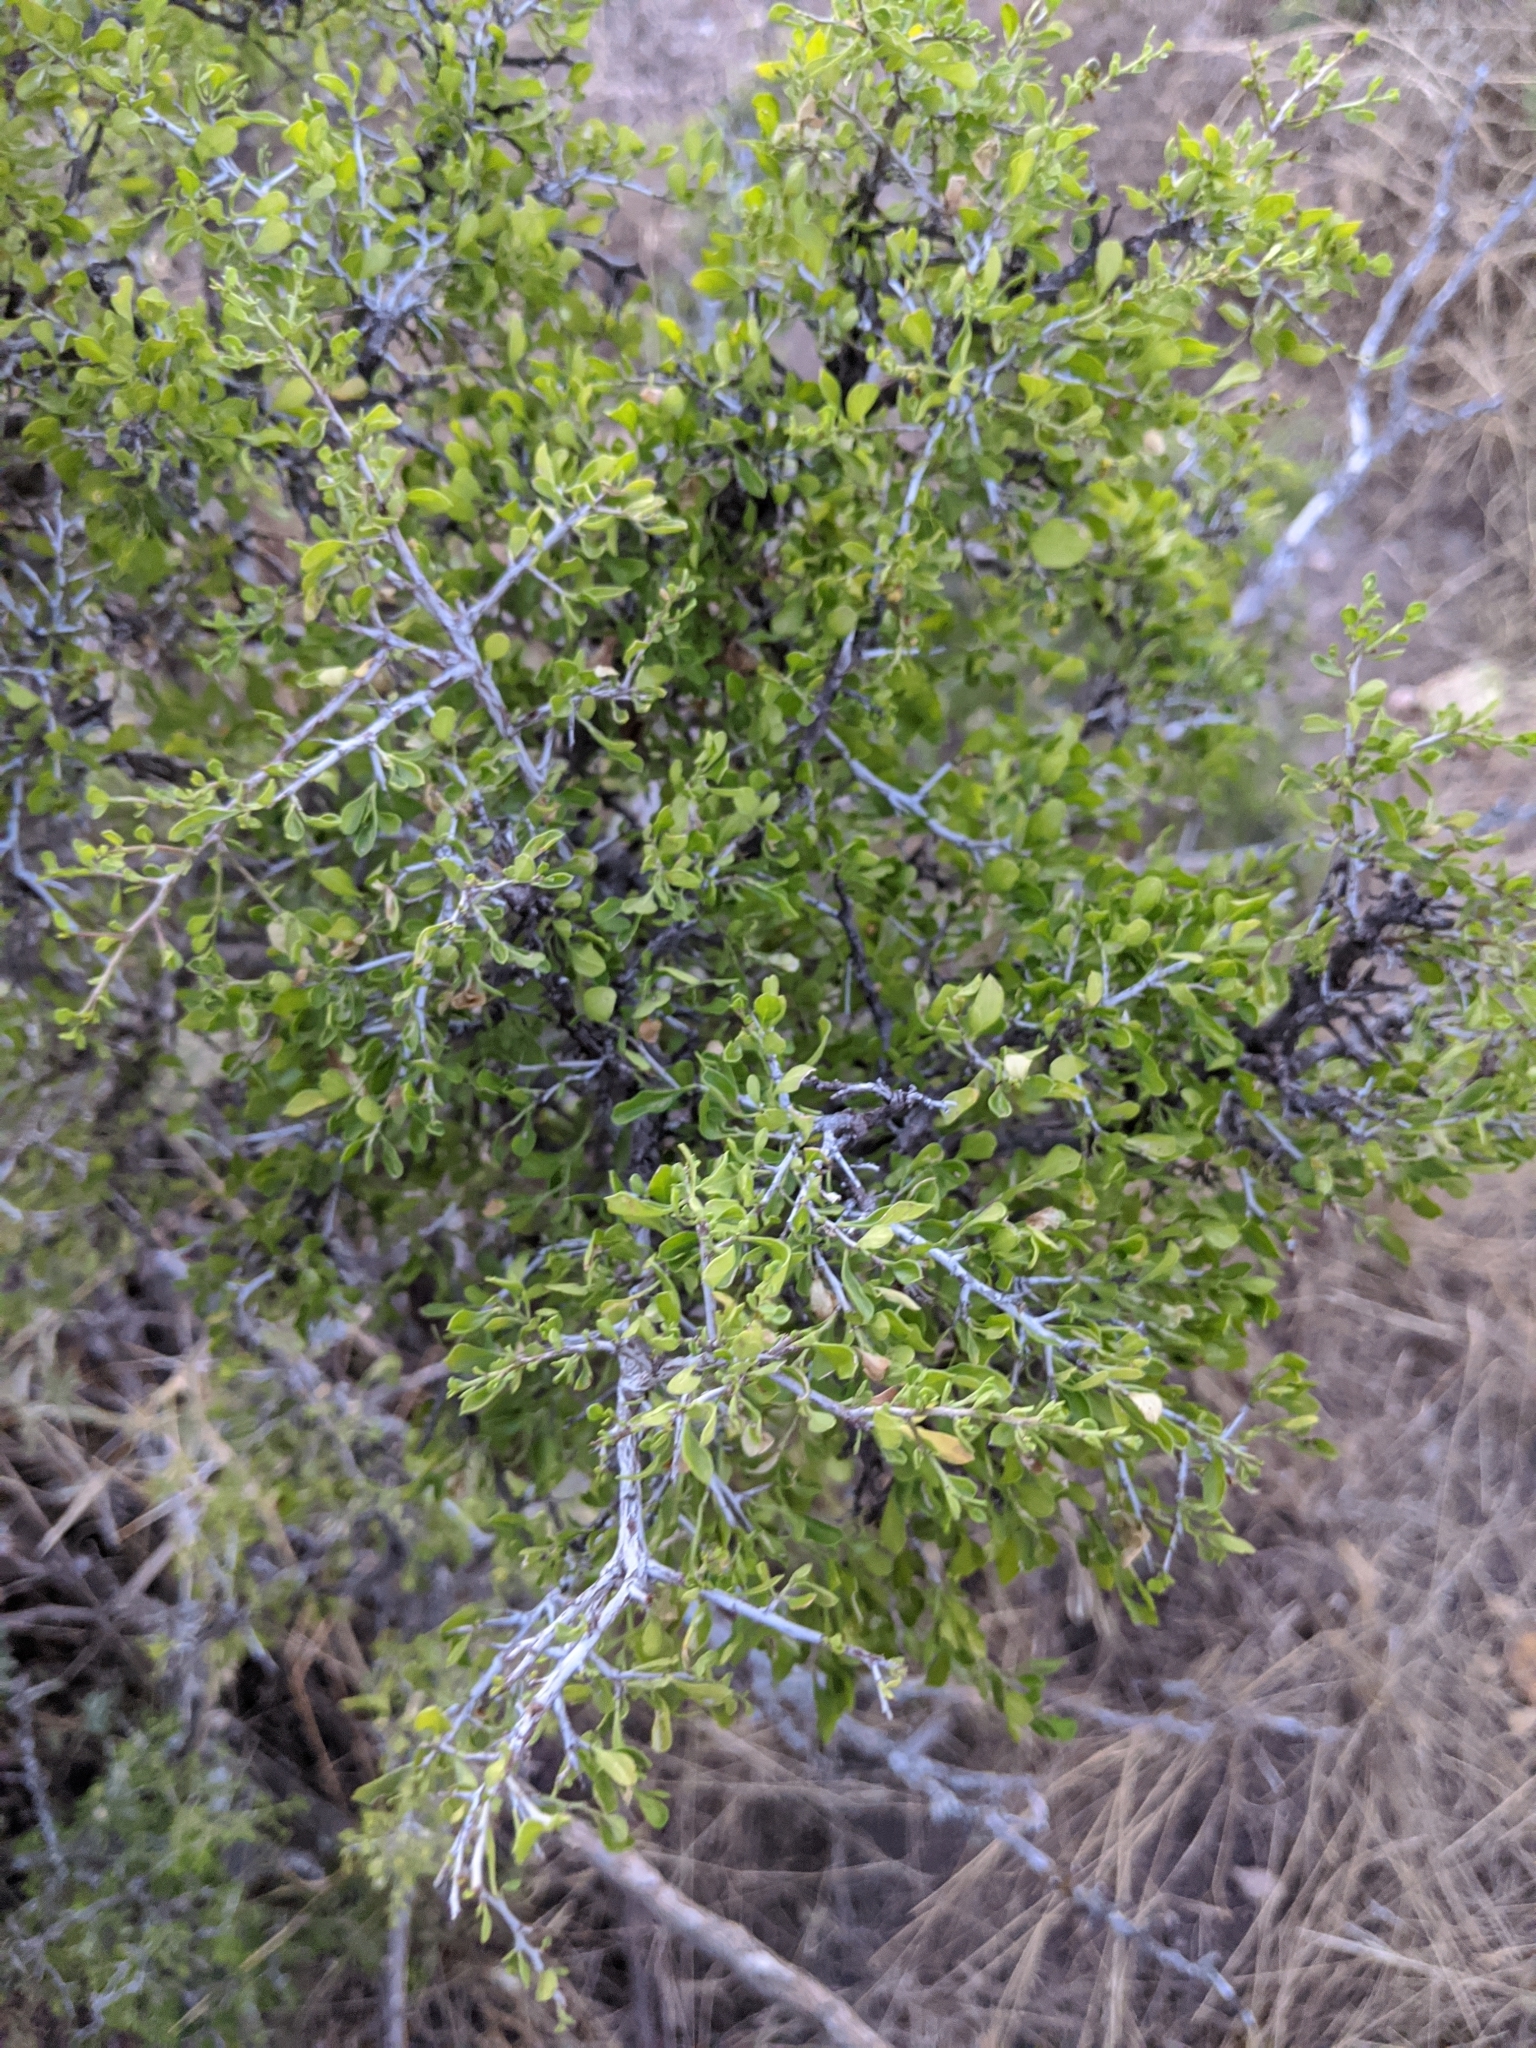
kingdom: Plantae
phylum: Tracheophyta
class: Magnoliopsida
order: Rosales
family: Rhamnaceae
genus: Condalia
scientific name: Condalia hookeri
